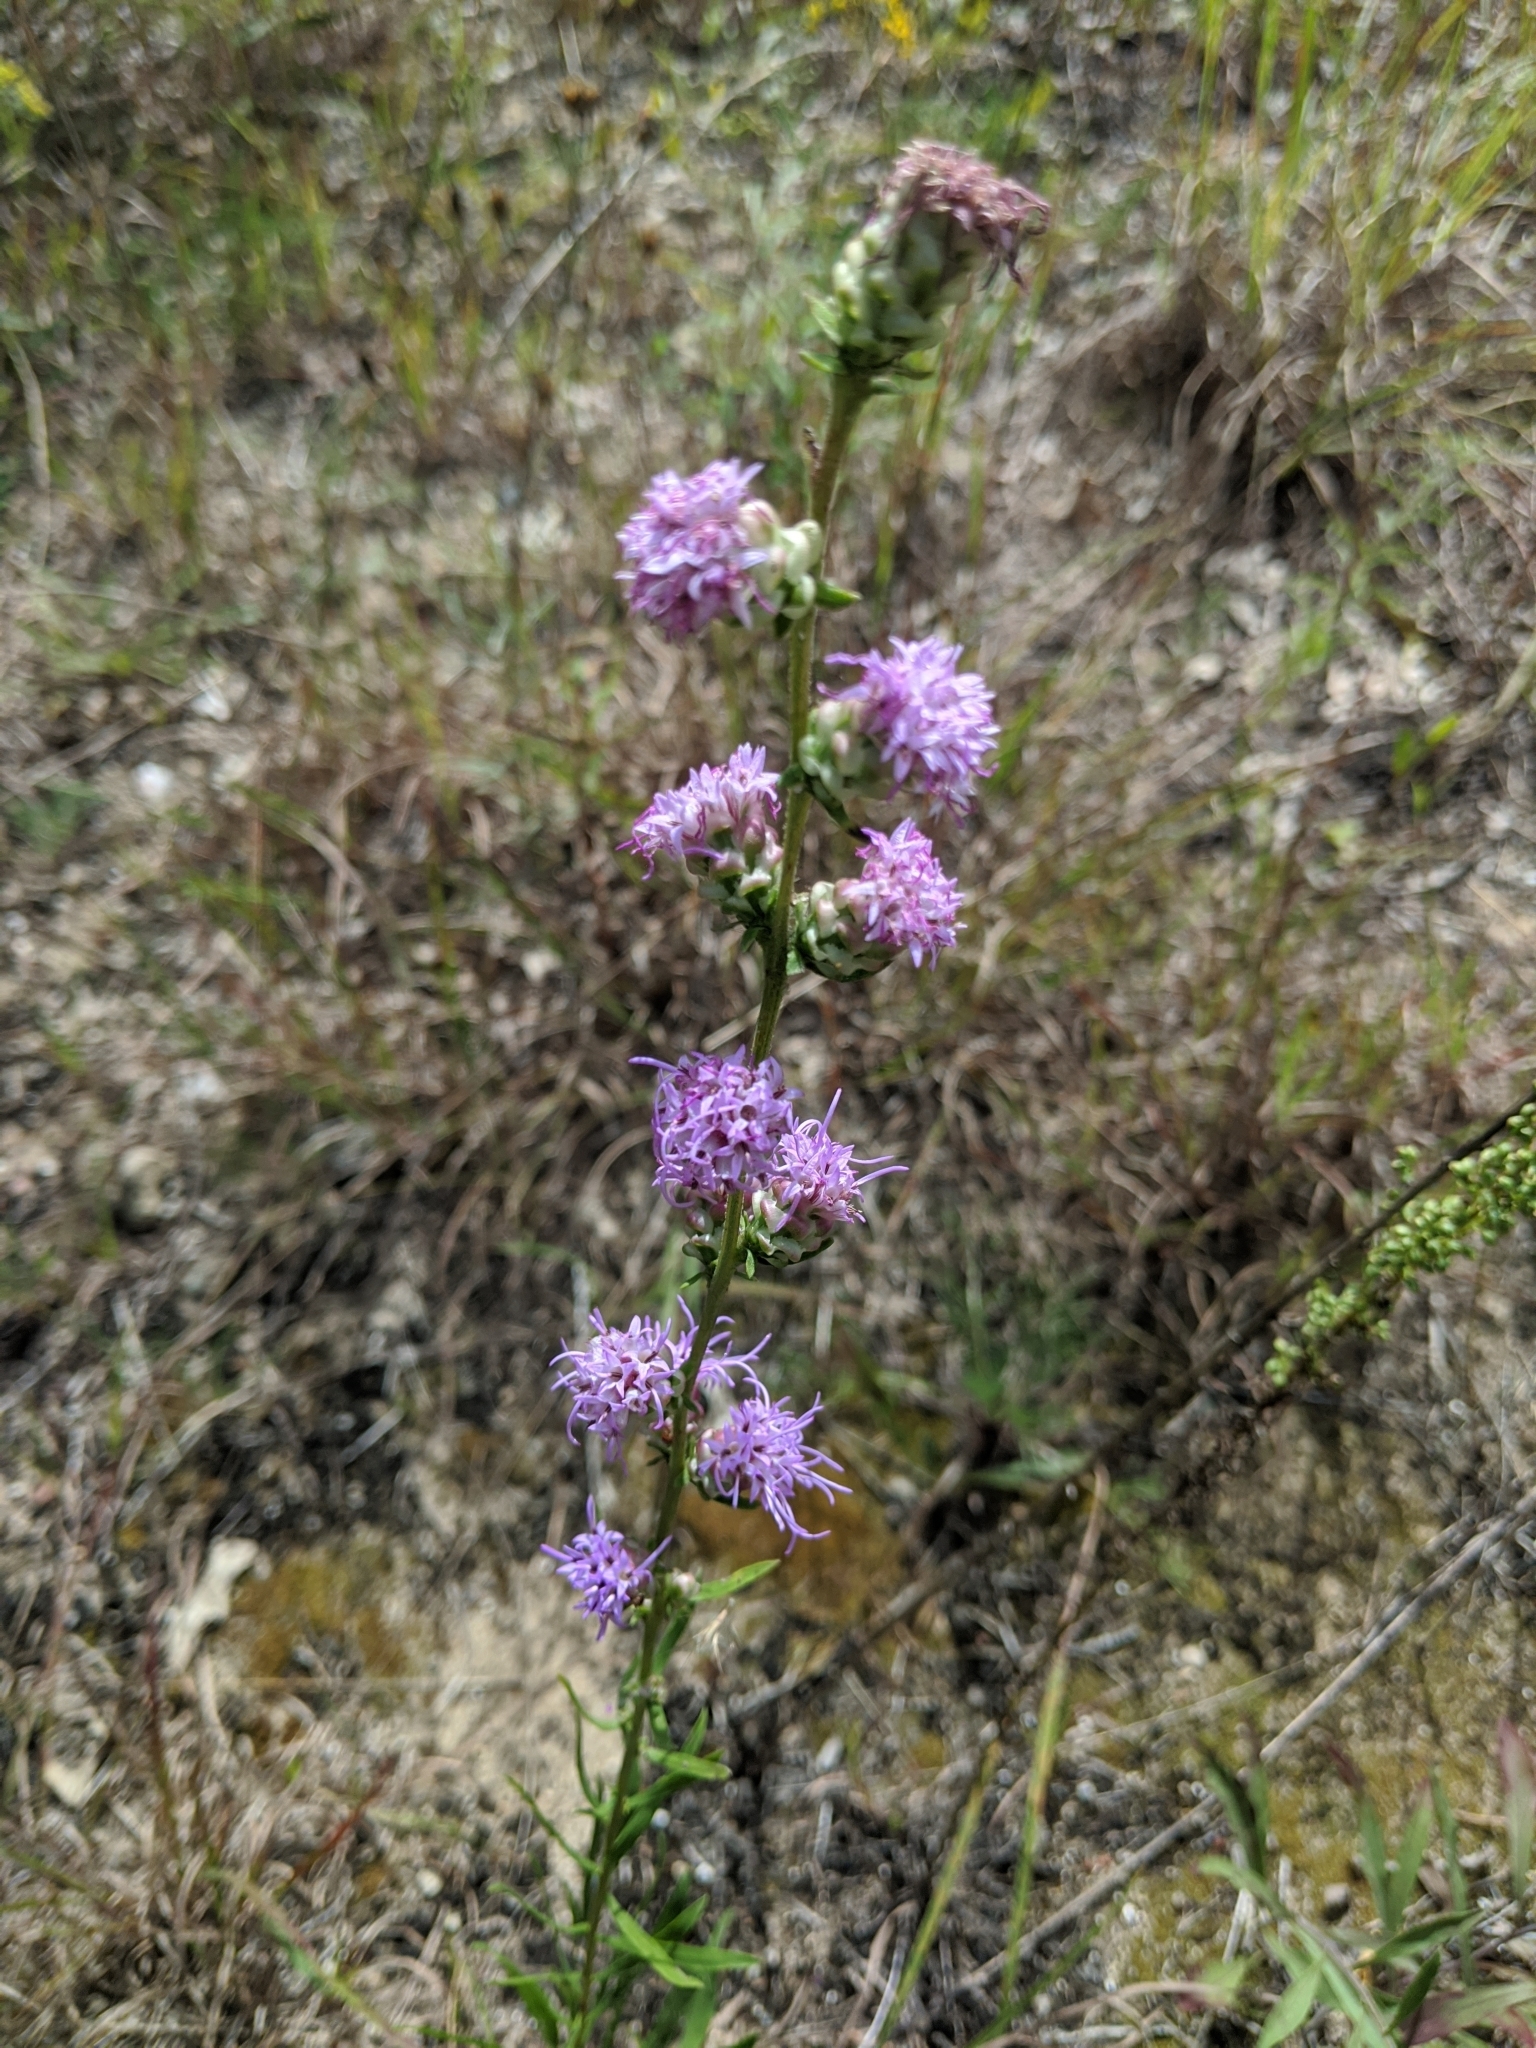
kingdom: Plantae
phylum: Tracheophyta
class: Magnoliopsida
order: Asterales
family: Asteraceae
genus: Liatris
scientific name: Liatris aspera
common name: Lacerate blazing-star
